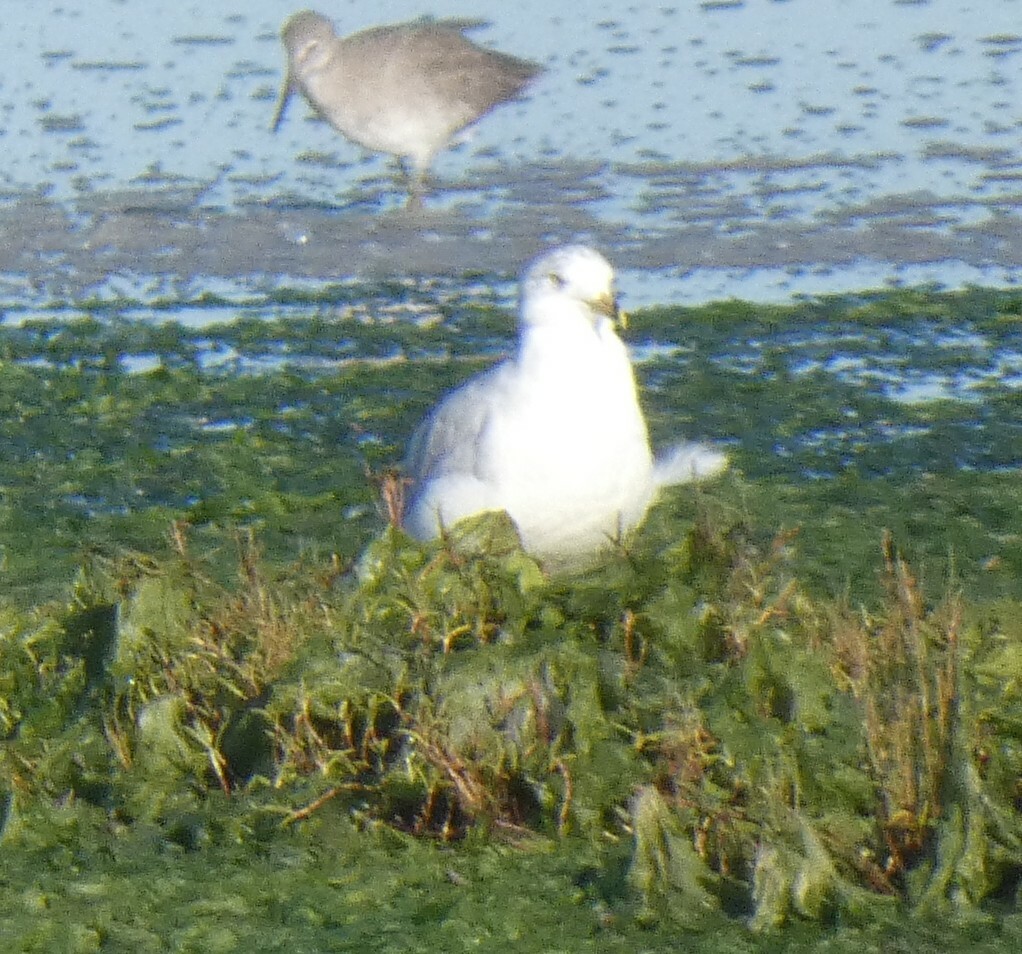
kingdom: Animalia
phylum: Chordata
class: Aves
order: Charadriiformes
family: Laridae
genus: Larus
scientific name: Larus delawarensis
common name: Ring-billed gull
